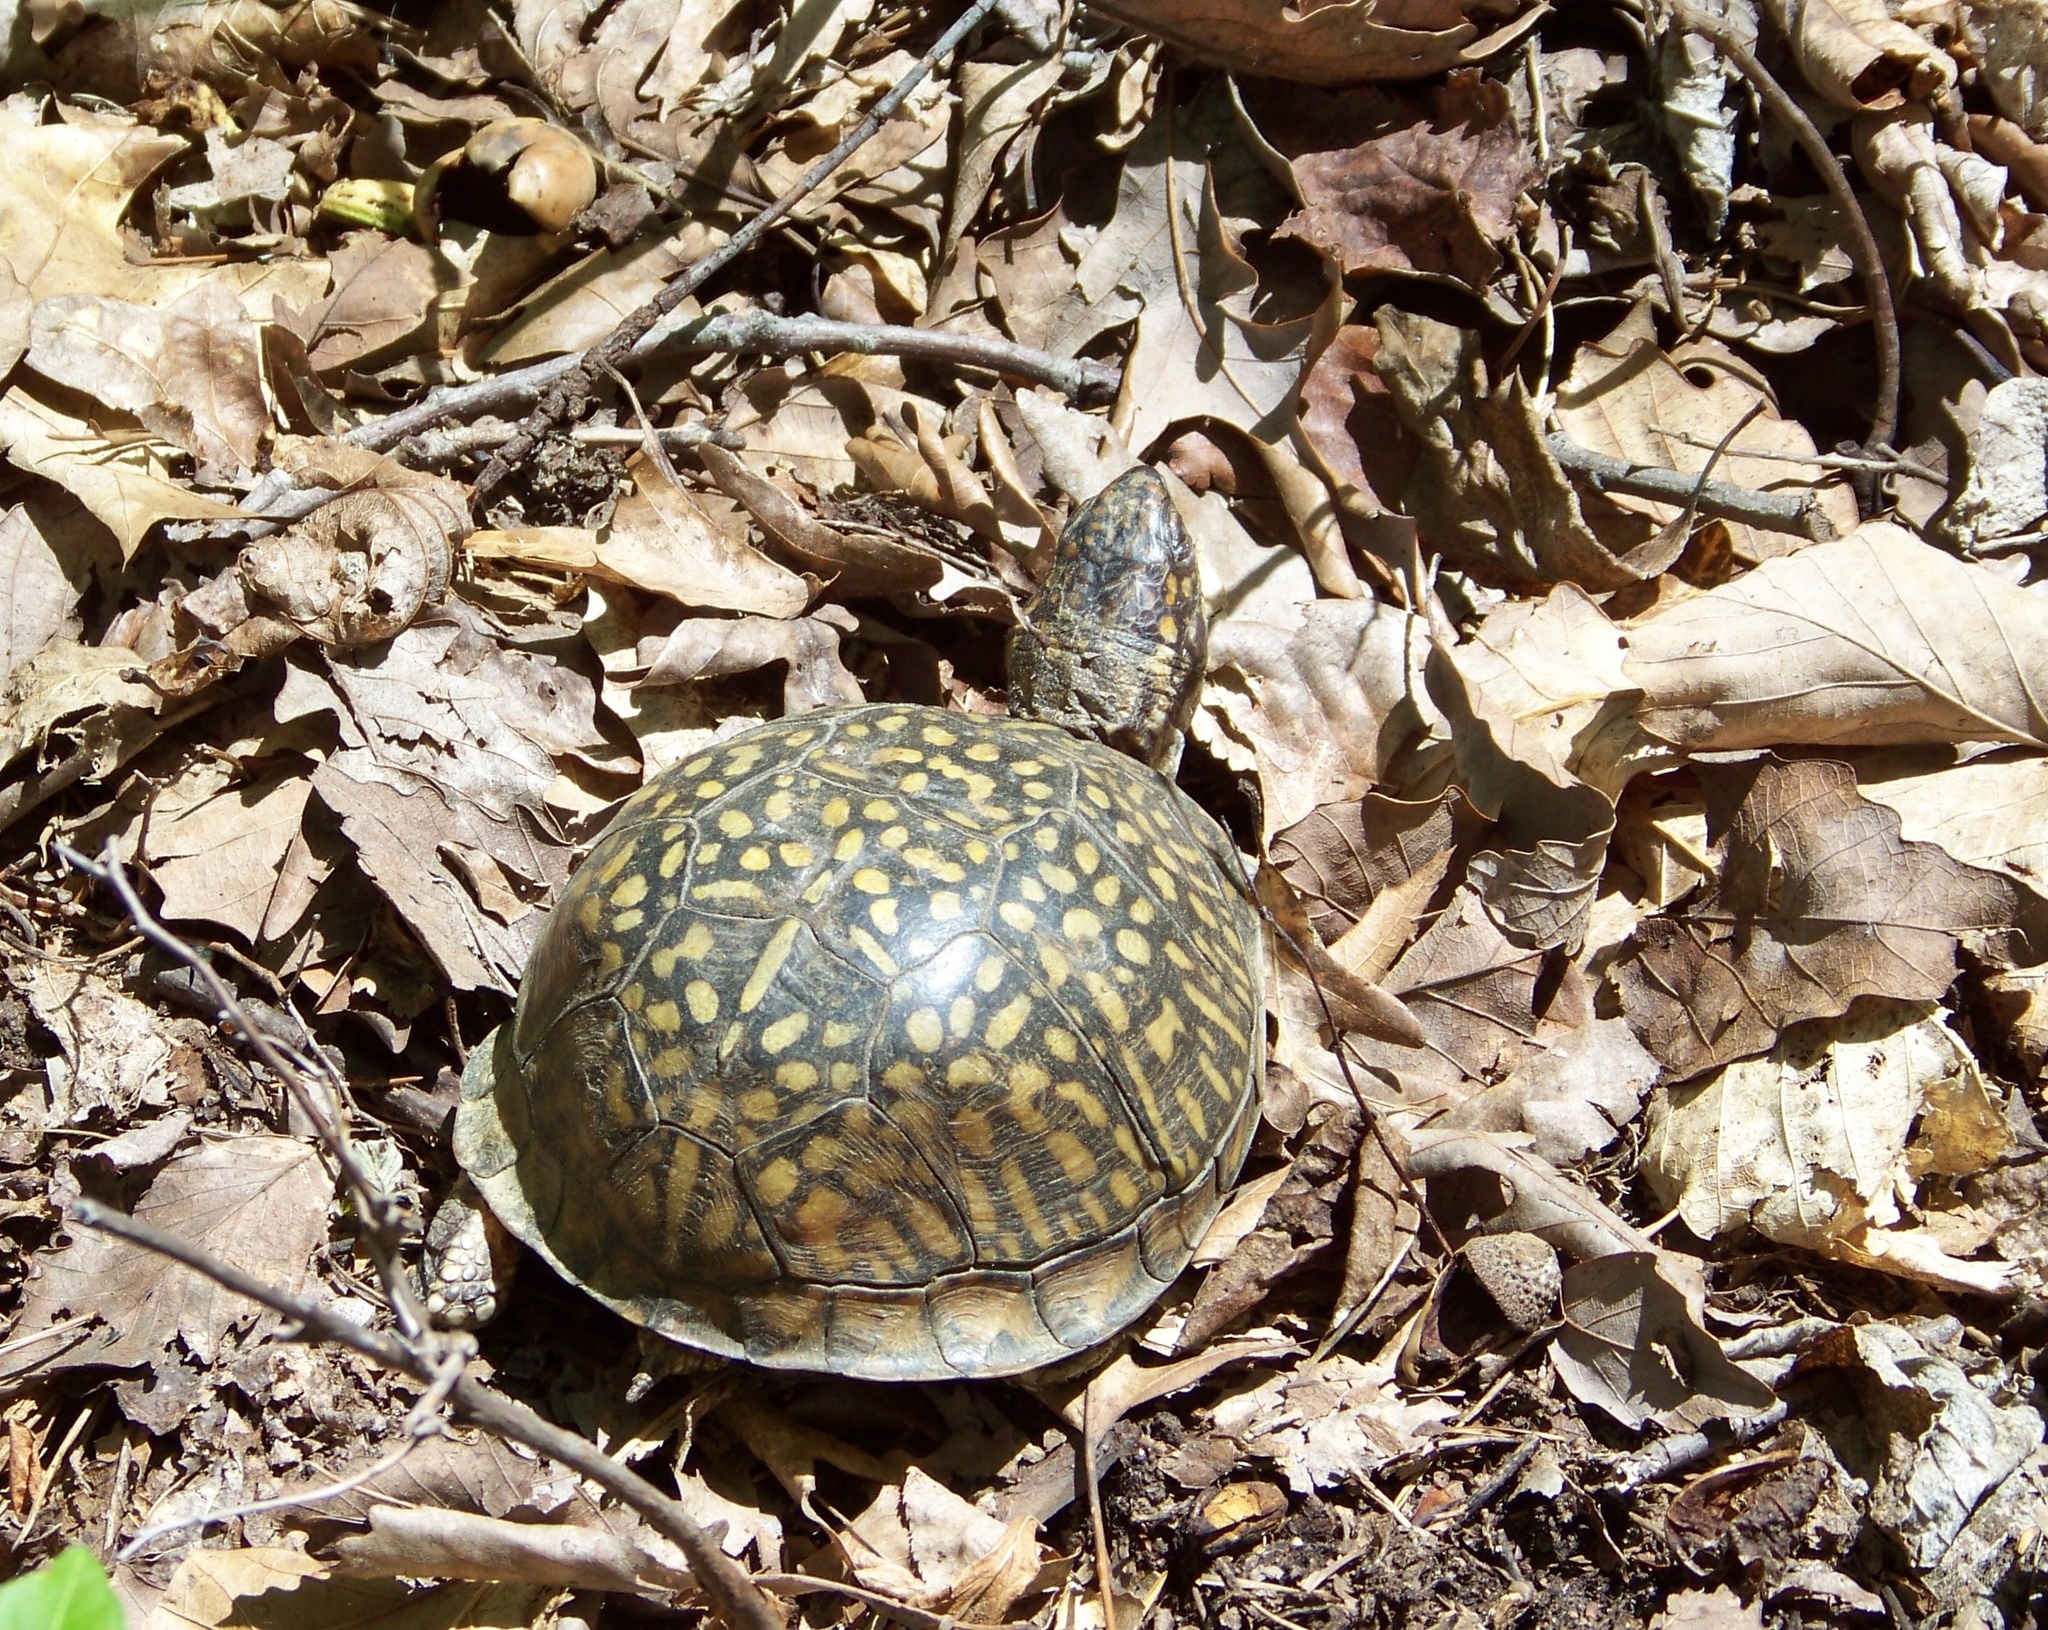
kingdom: Animalia
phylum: Chordata
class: Testudines
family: Emydidae
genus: Terrapene
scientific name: Terrapene carolina
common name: Common box turtle
